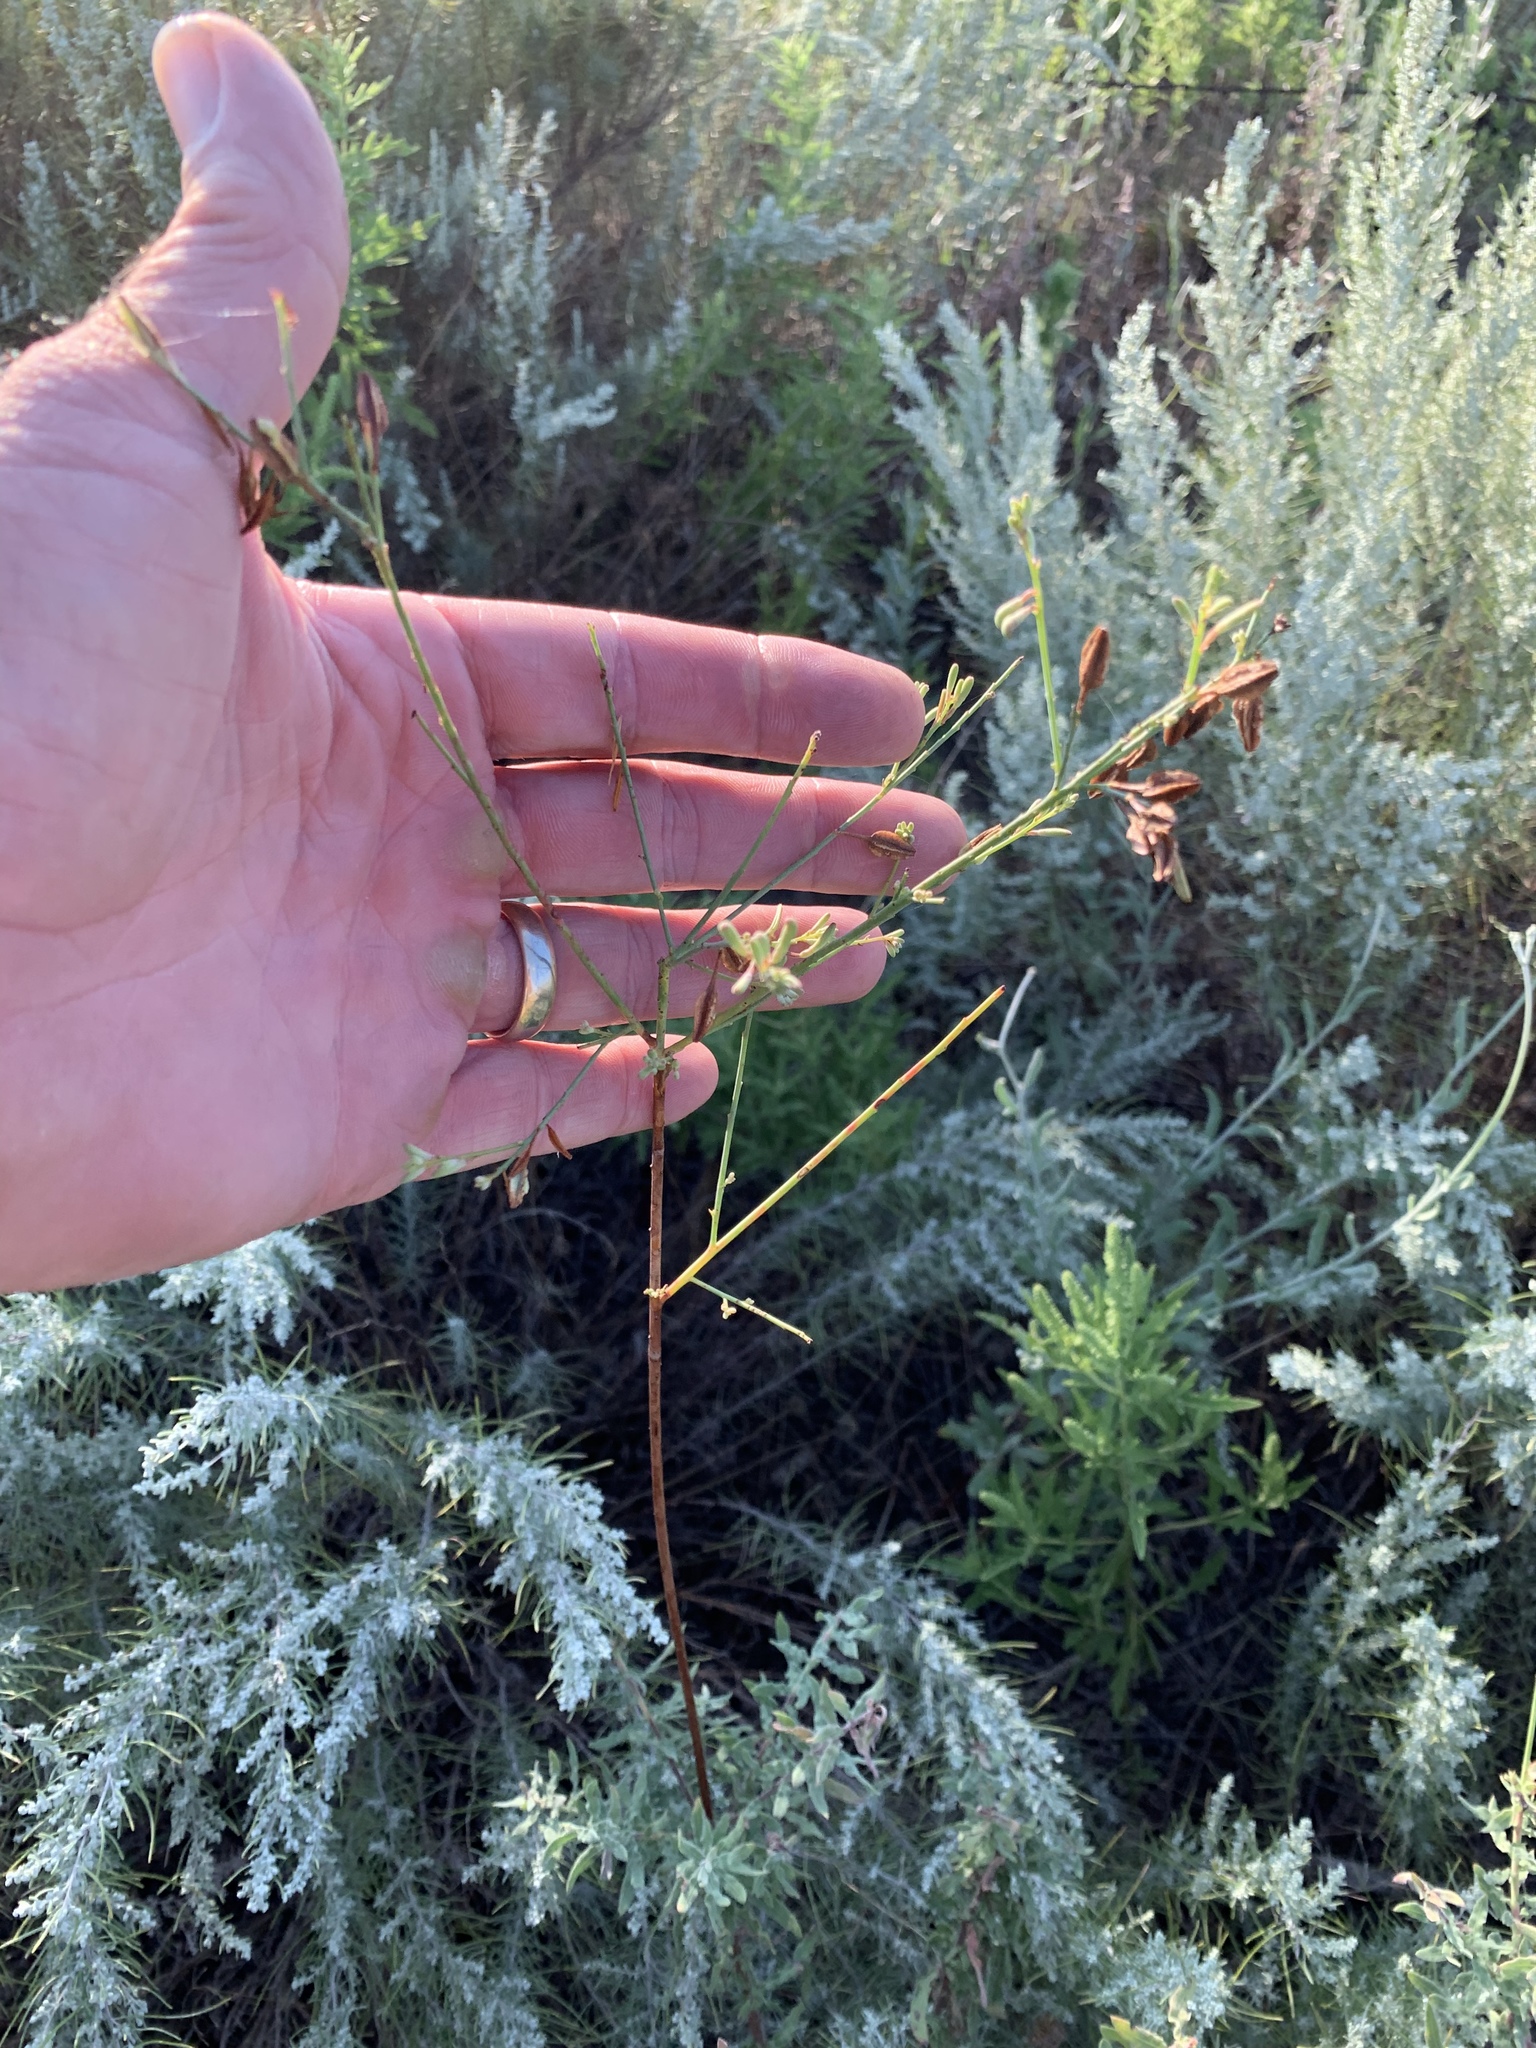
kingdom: Plantae
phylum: Tracheophyta
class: Magnoliopsida
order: Myrtales
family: Onagraceae
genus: Oenothera
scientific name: Oenothera curtiflora
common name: Velvetweed
